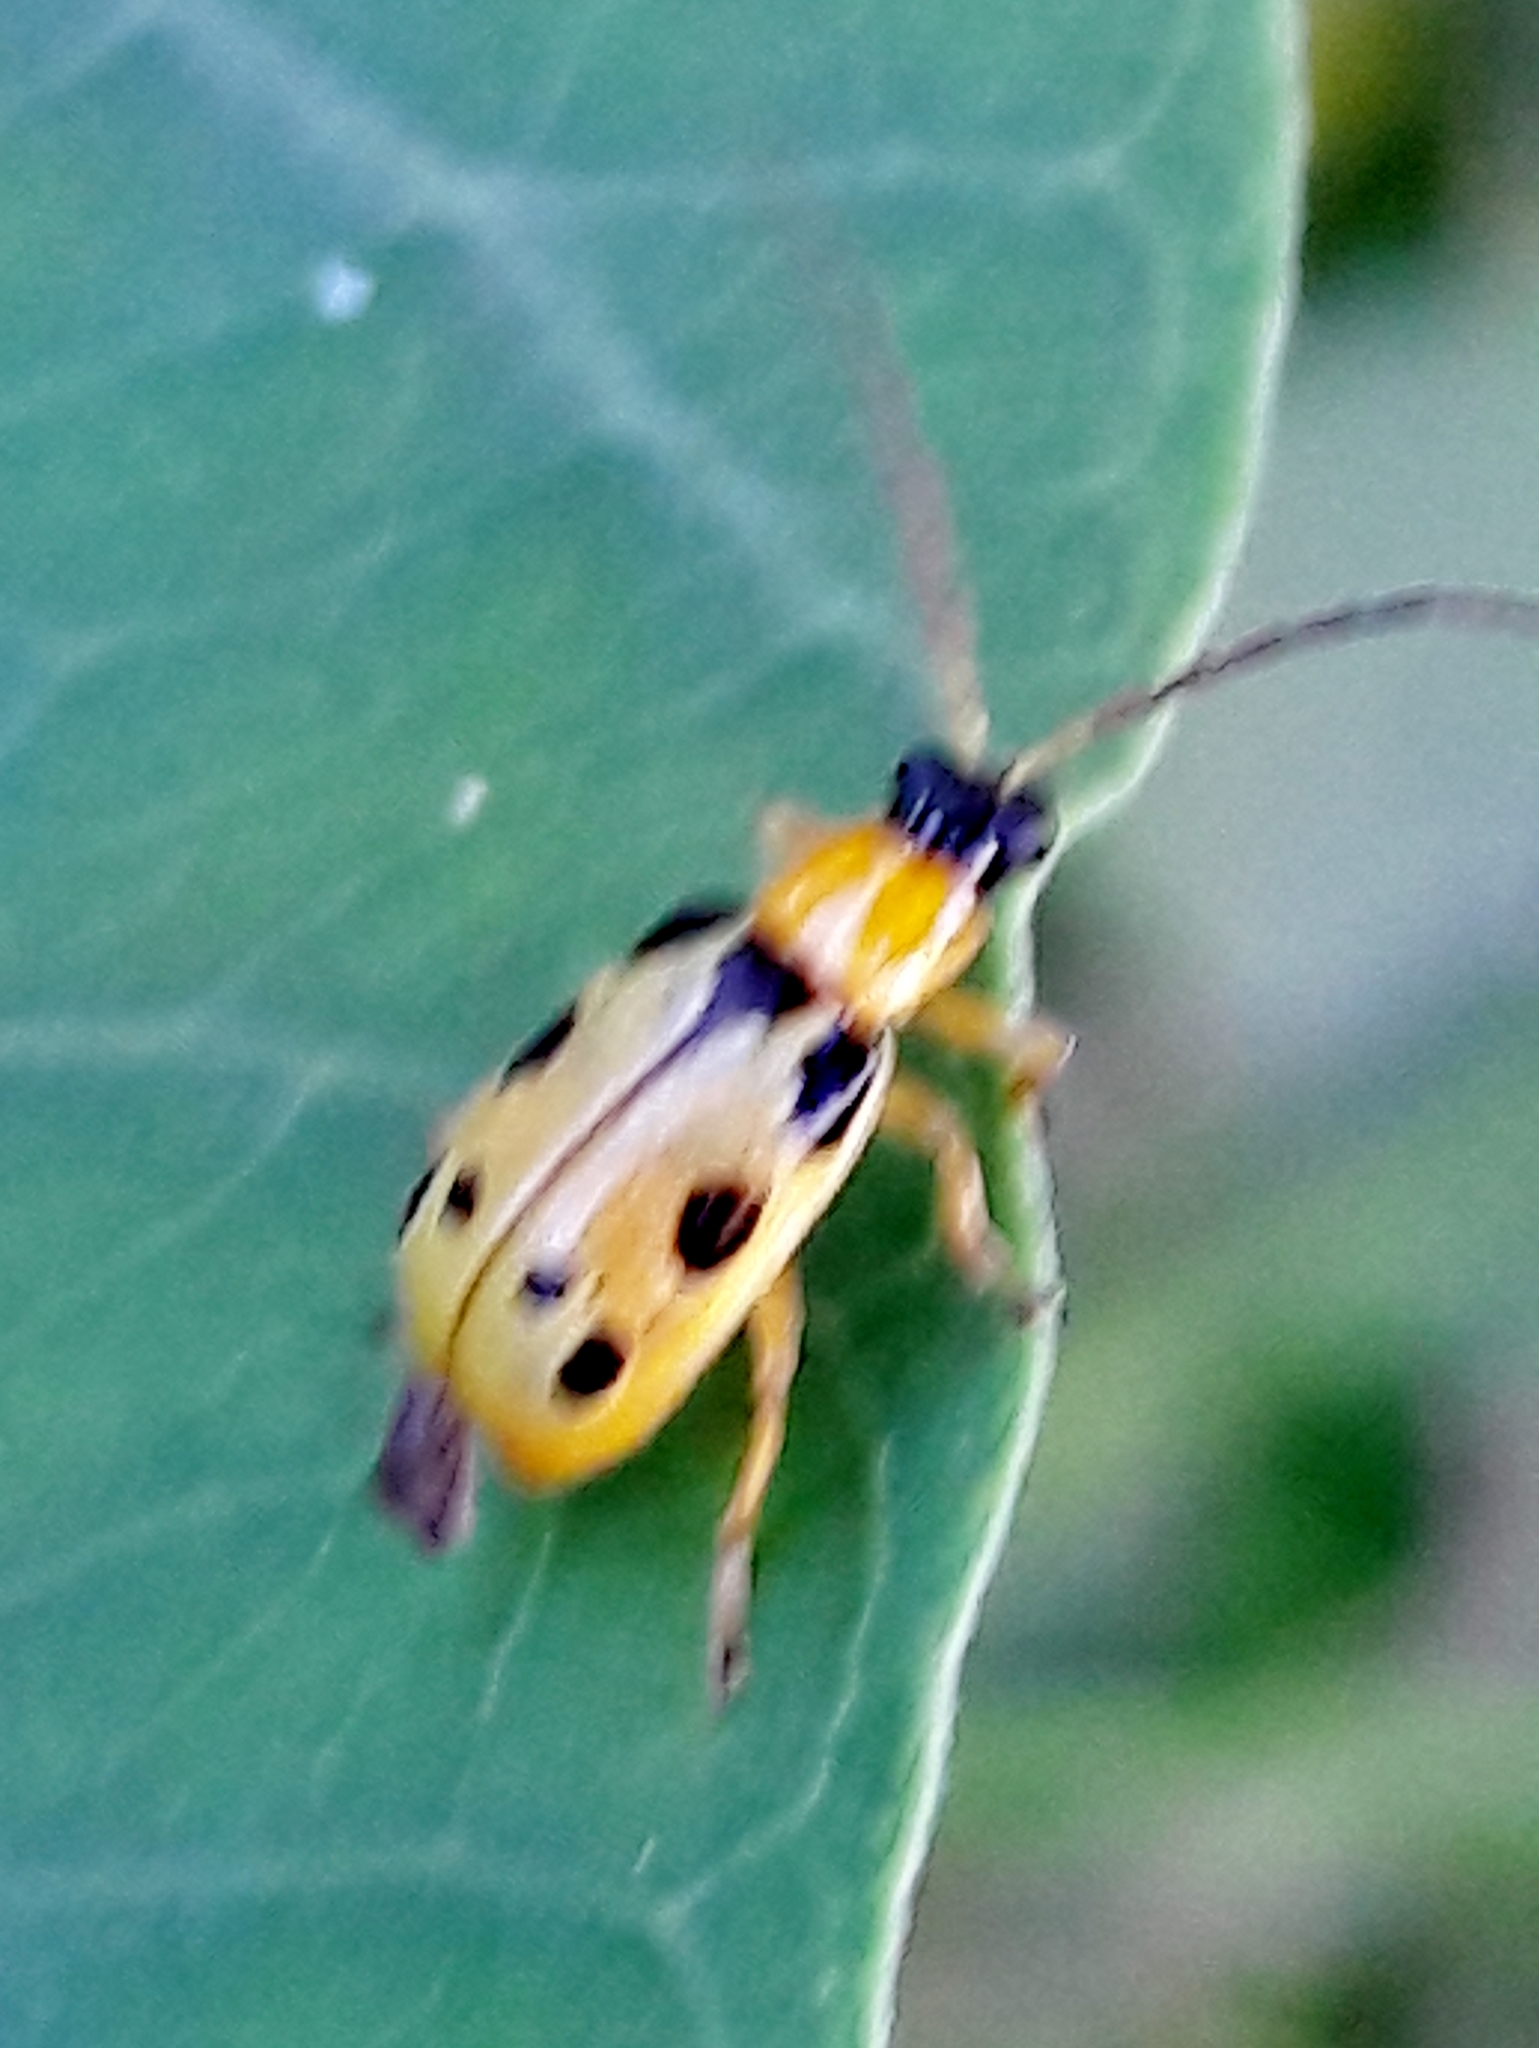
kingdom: Animalia
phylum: Arthropoda
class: Insecta
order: Coleoptera
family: Chrysomelidae
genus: Basiprionota
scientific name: Basiprionota sinuata
